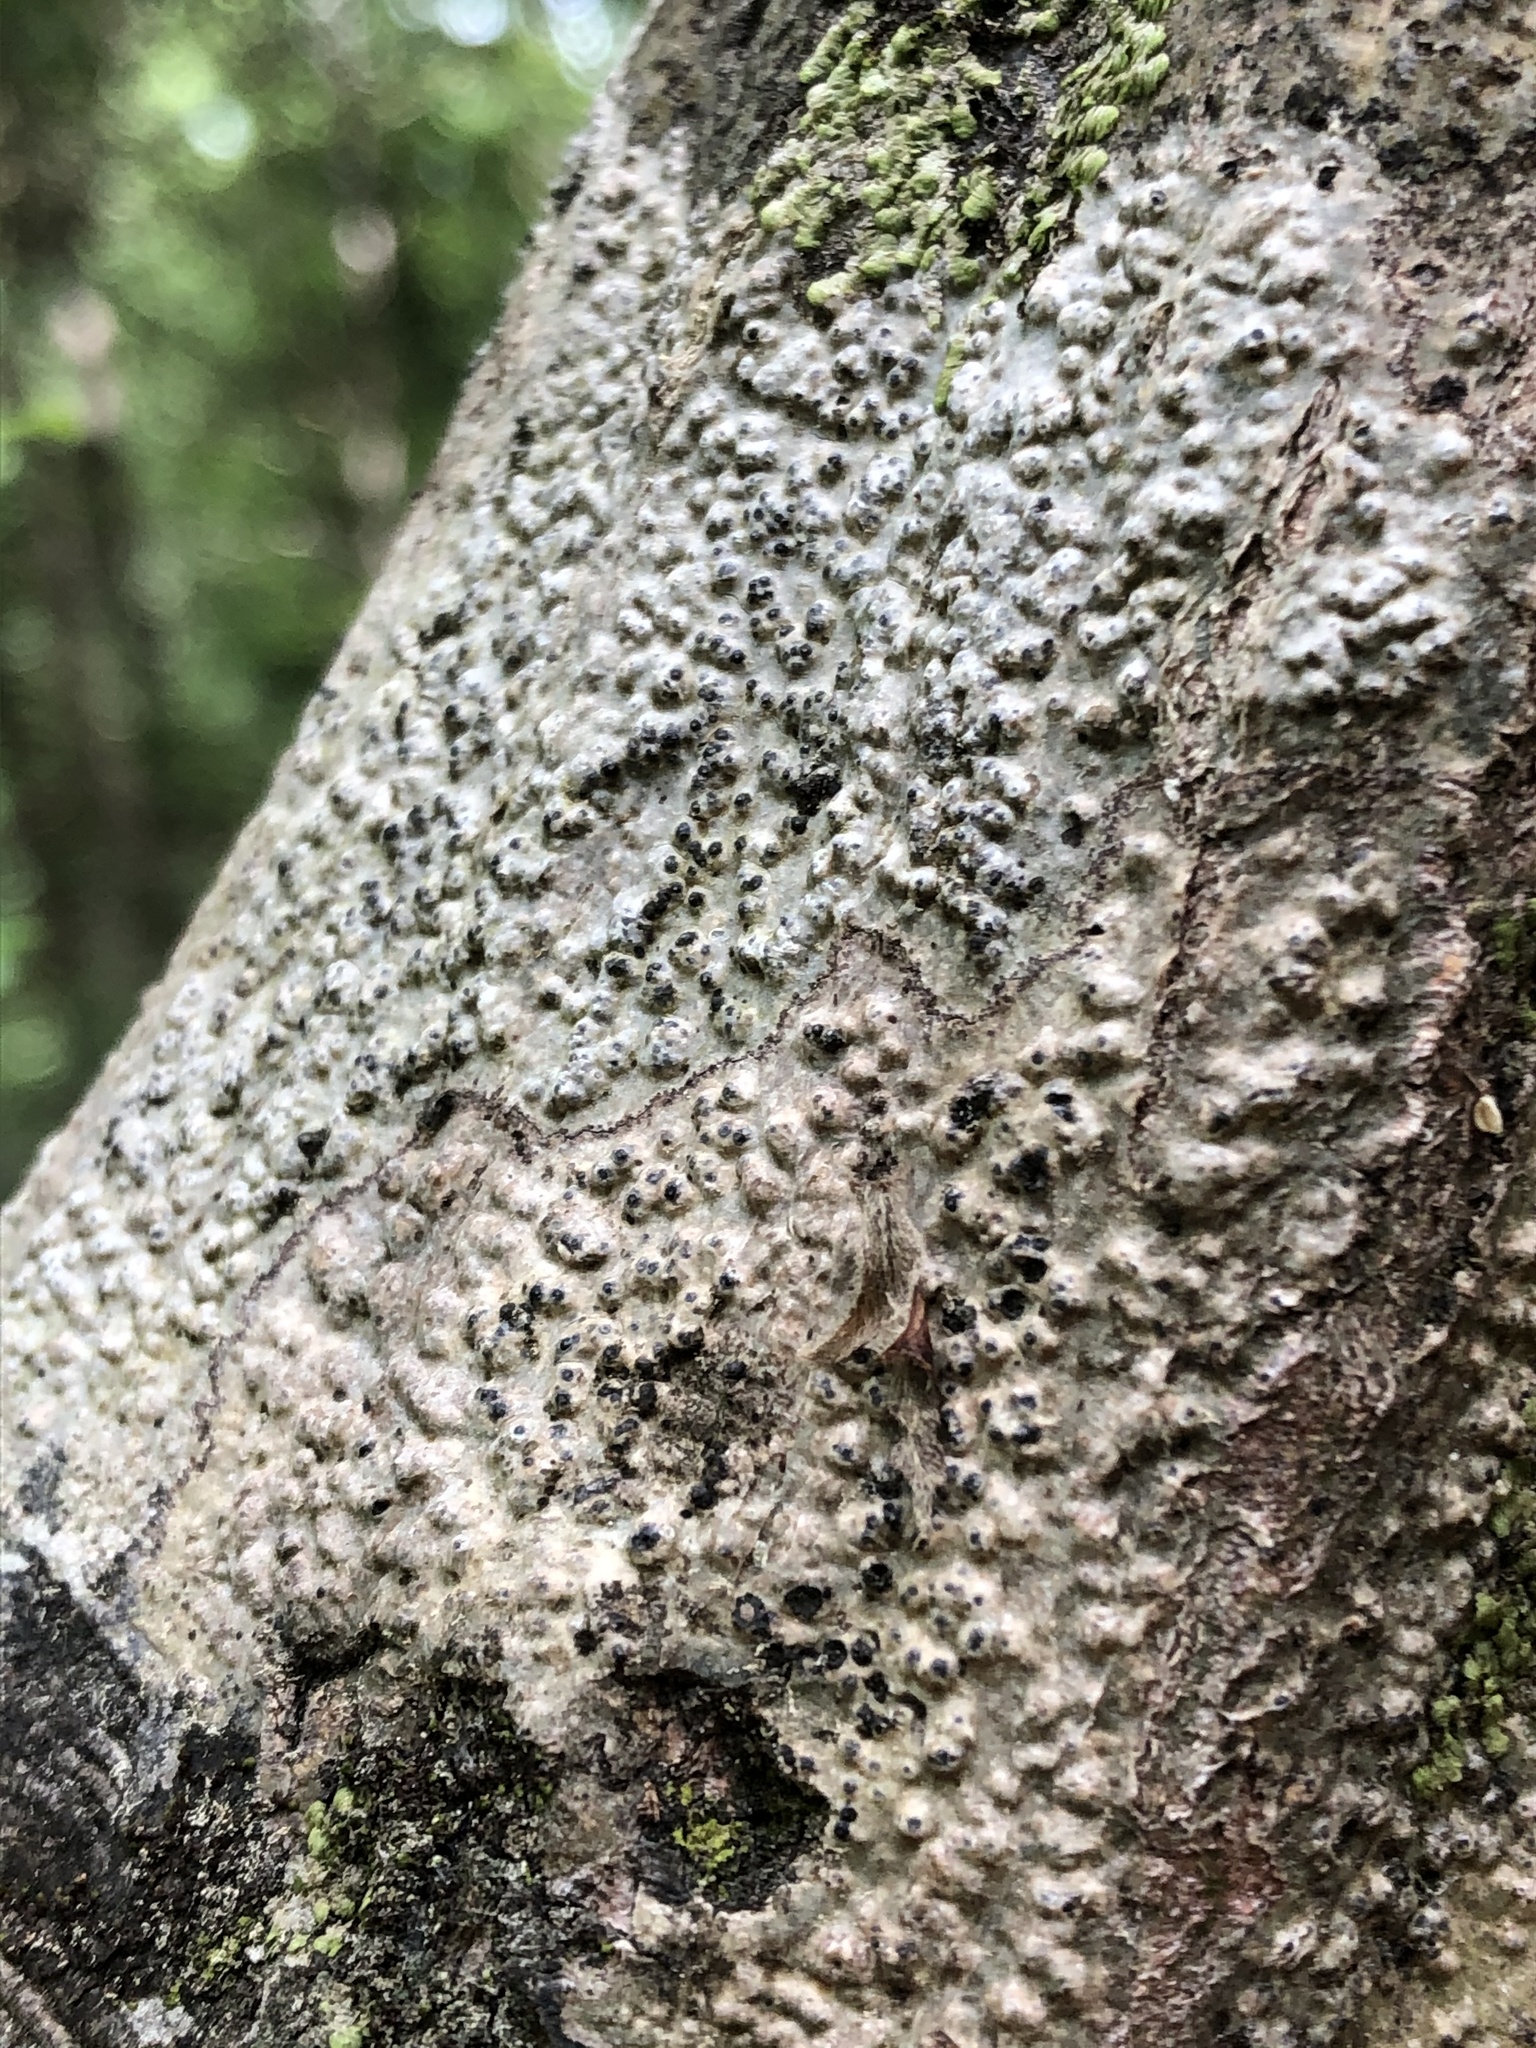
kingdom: Fungi
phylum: Ascomycota
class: Dothideomycetes
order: Trypetheliales
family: Trypetheliaceae
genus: Viridothelium
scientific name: Viridothelium virens
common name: Speckled blister lichen
